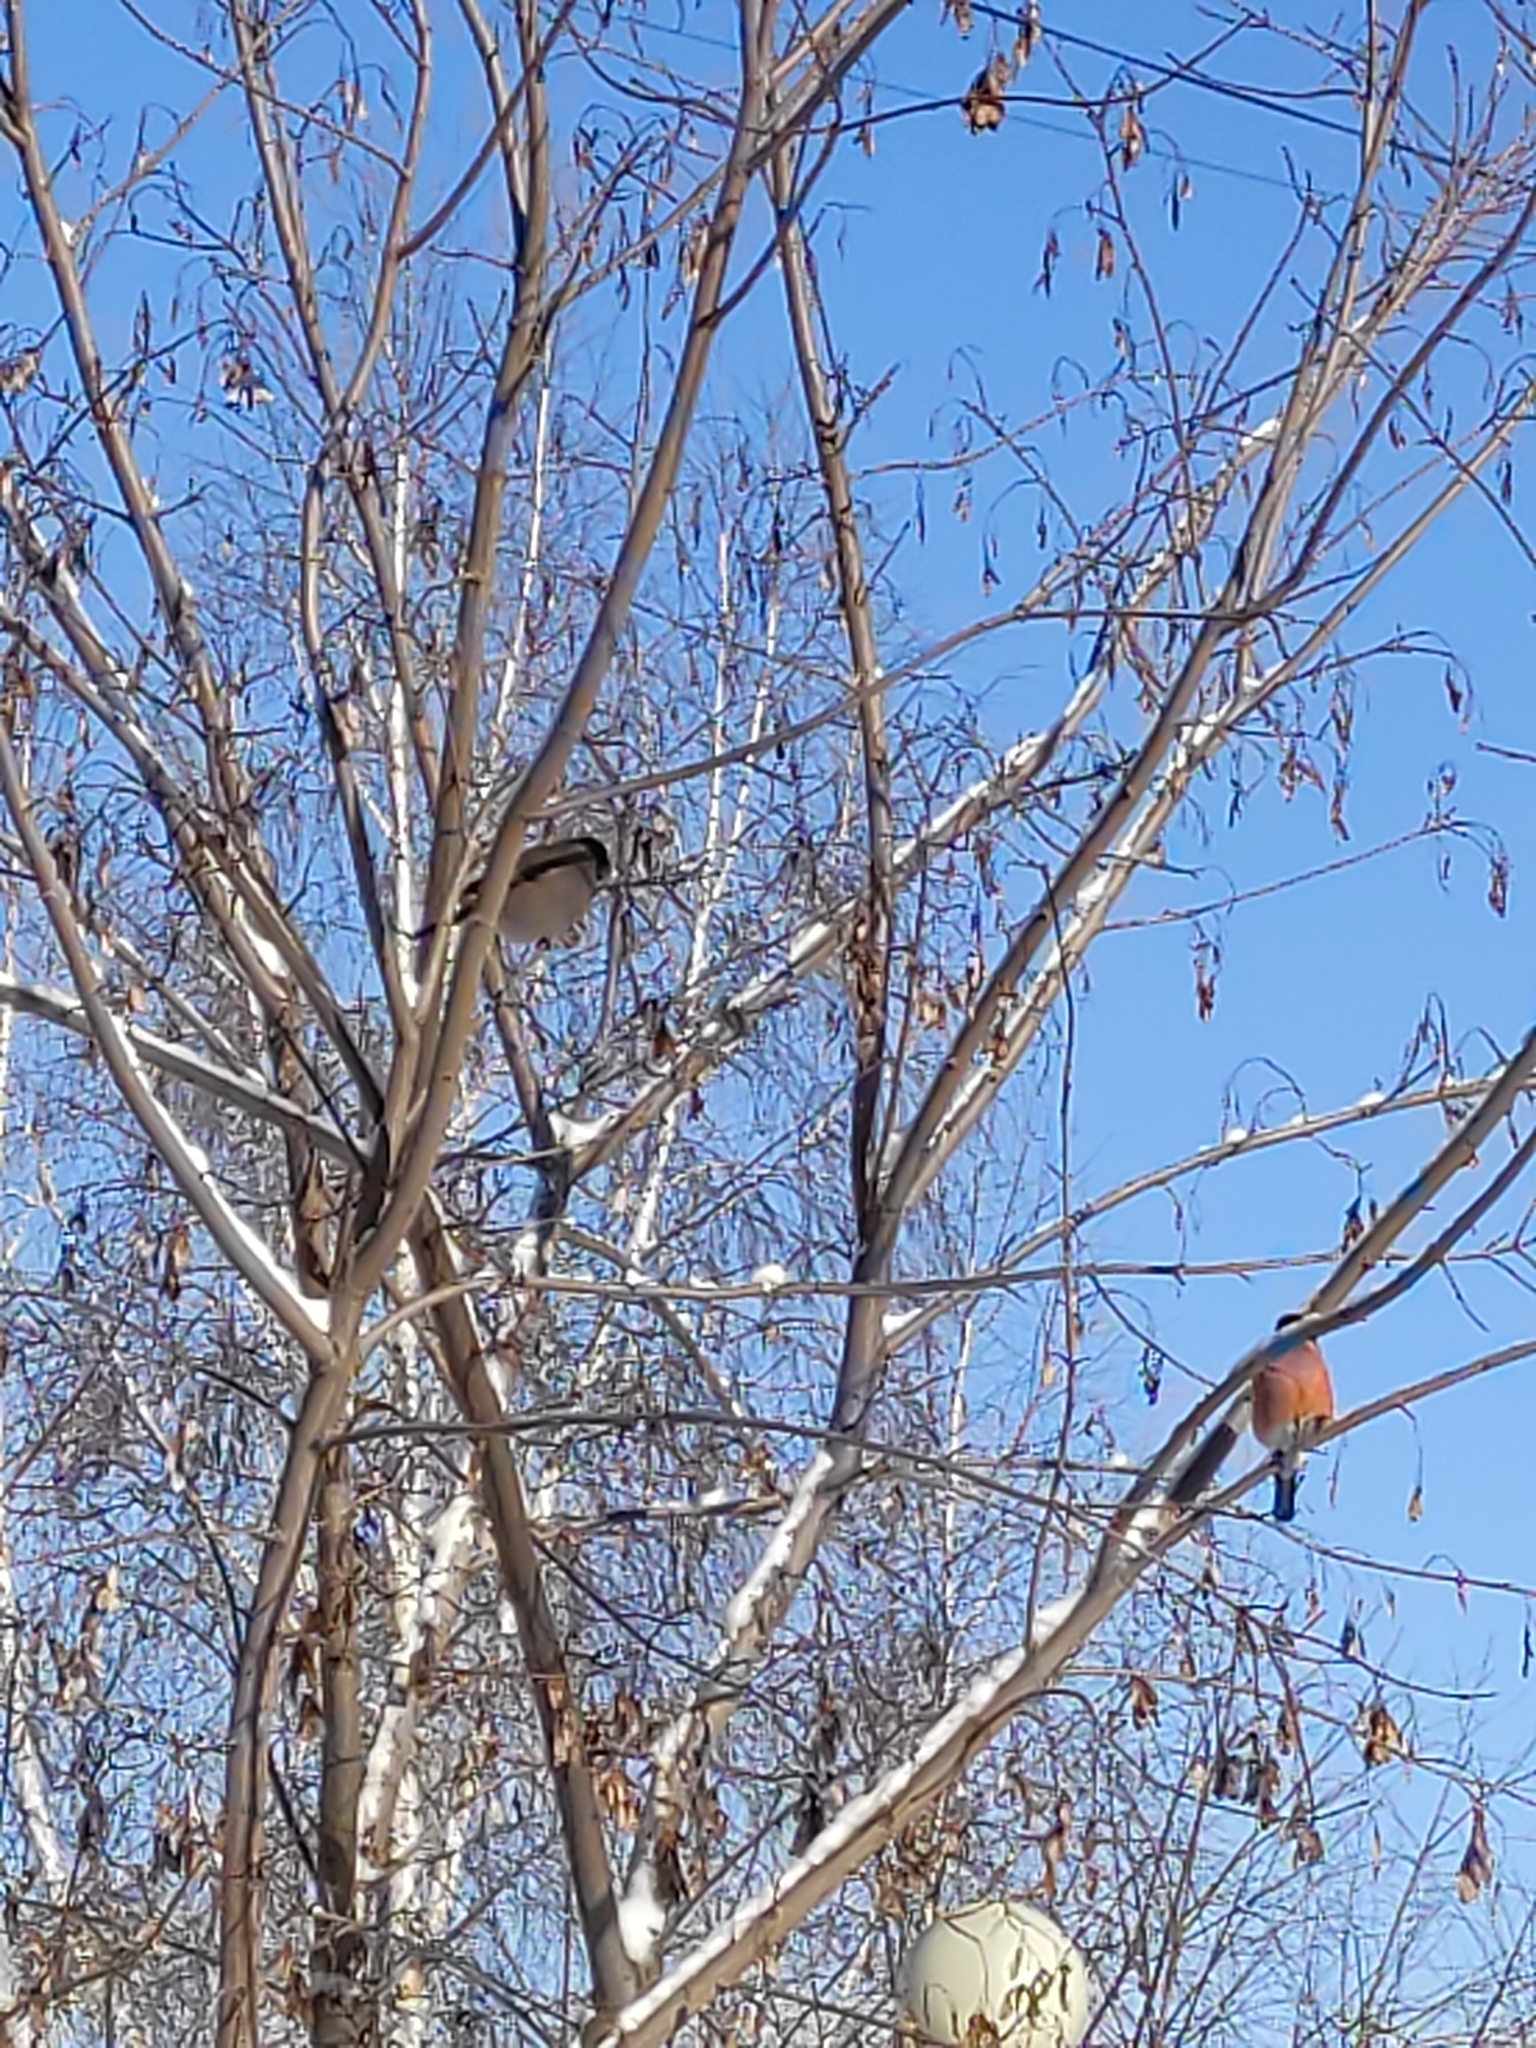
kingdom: Animalia
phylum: Chordata
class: Aves
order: Passeriformes
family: Fringillidae
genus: Pyrrhula
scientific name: Pyrrhula pyrrhula
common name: Eurasian bullfinch
